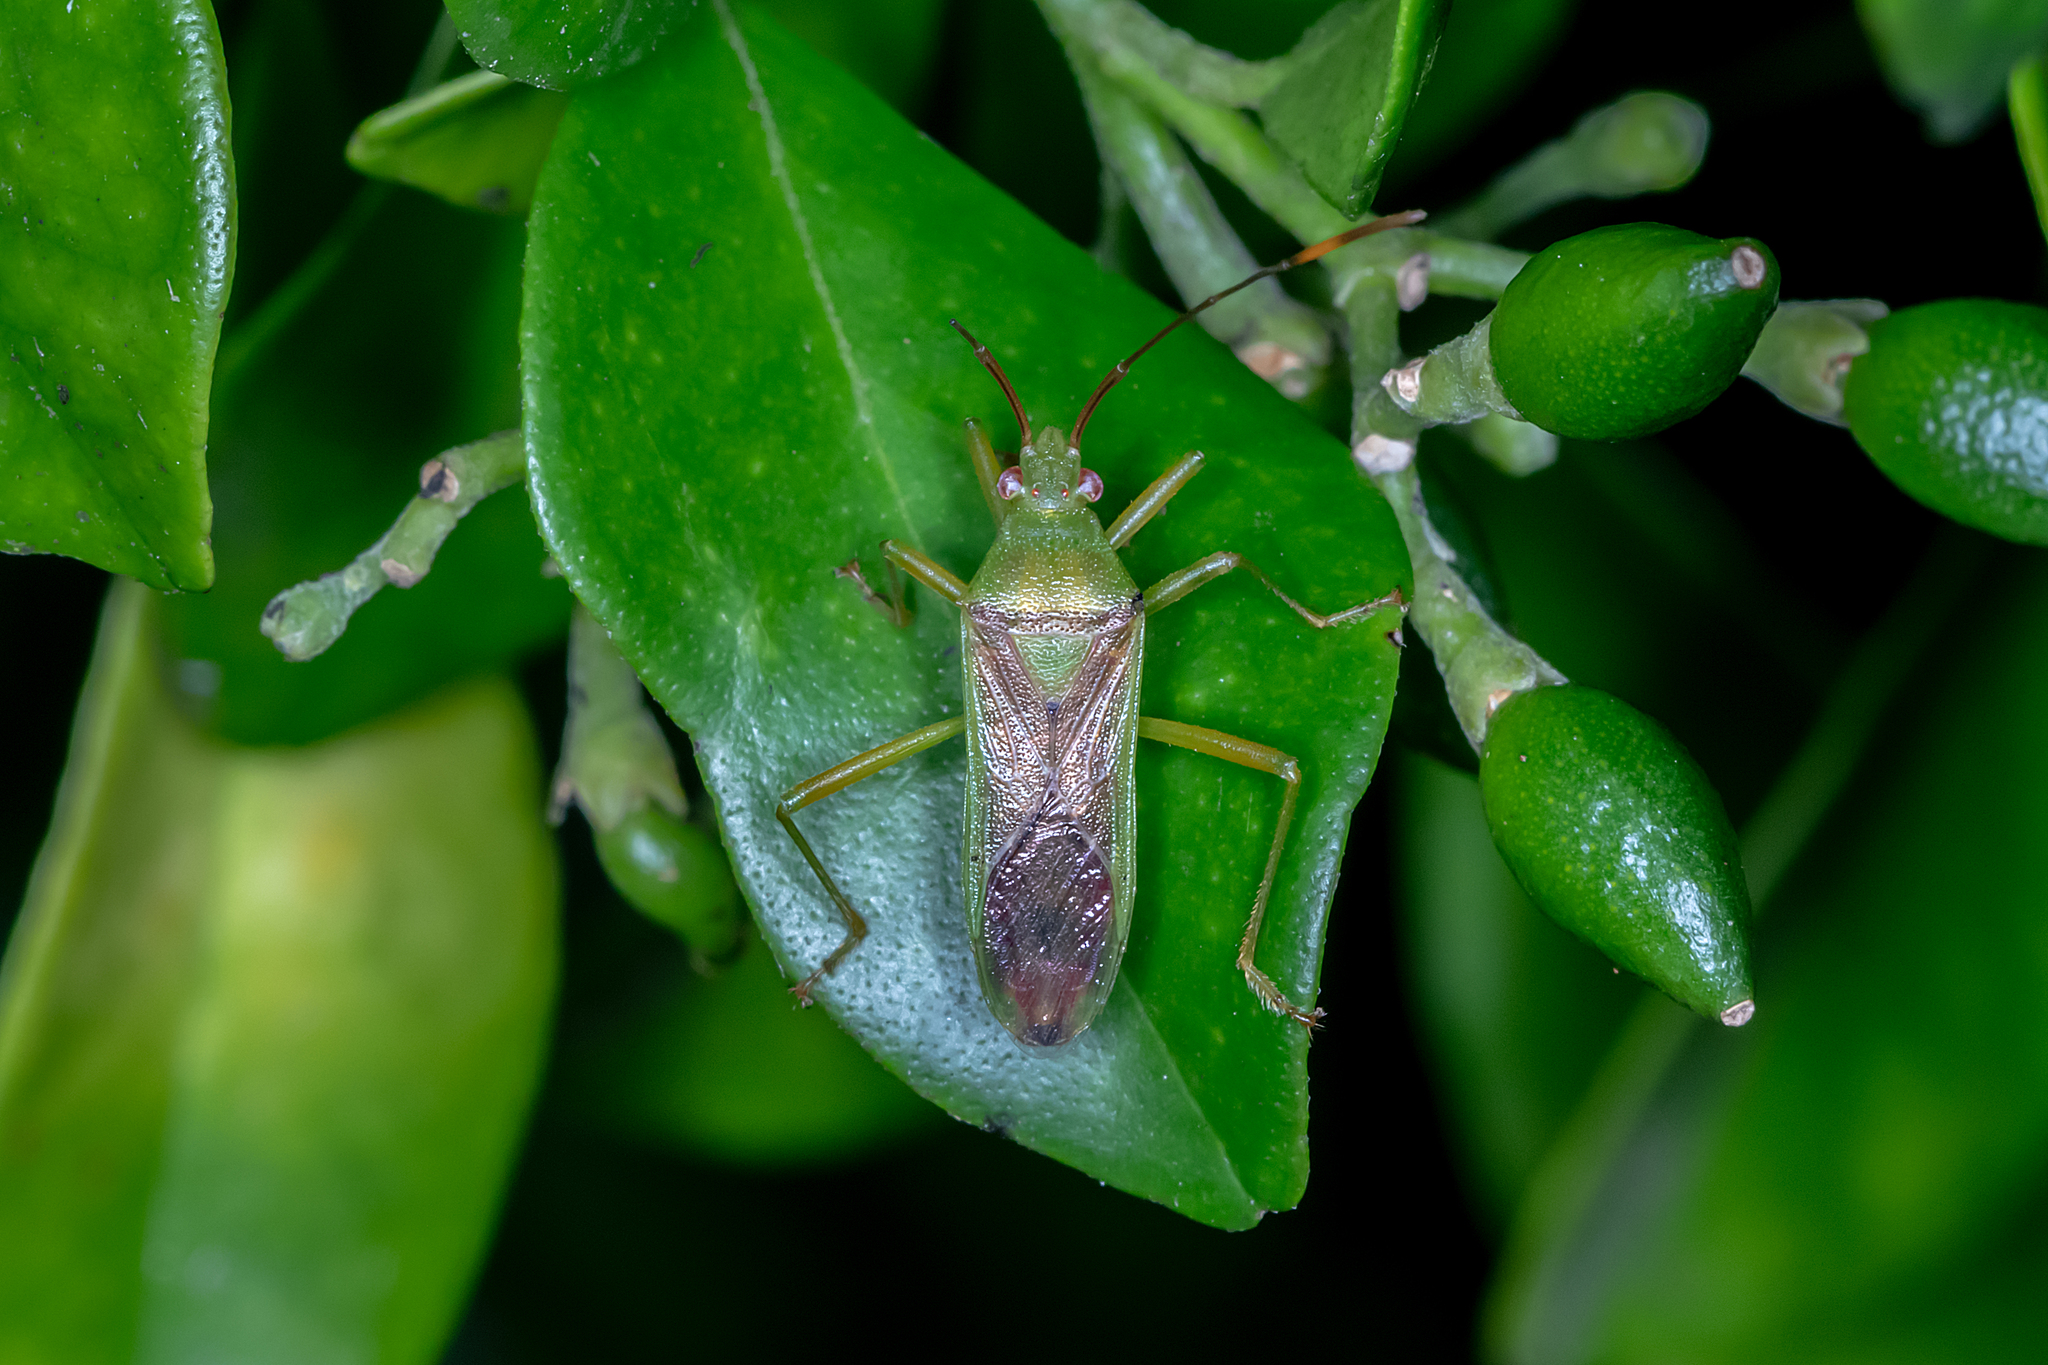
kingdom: Animalia
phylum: Arthropoda
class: Insecta
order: Hemiptera
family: Coreidae
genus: Amblypelta
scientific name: Amblypelta lutescens
